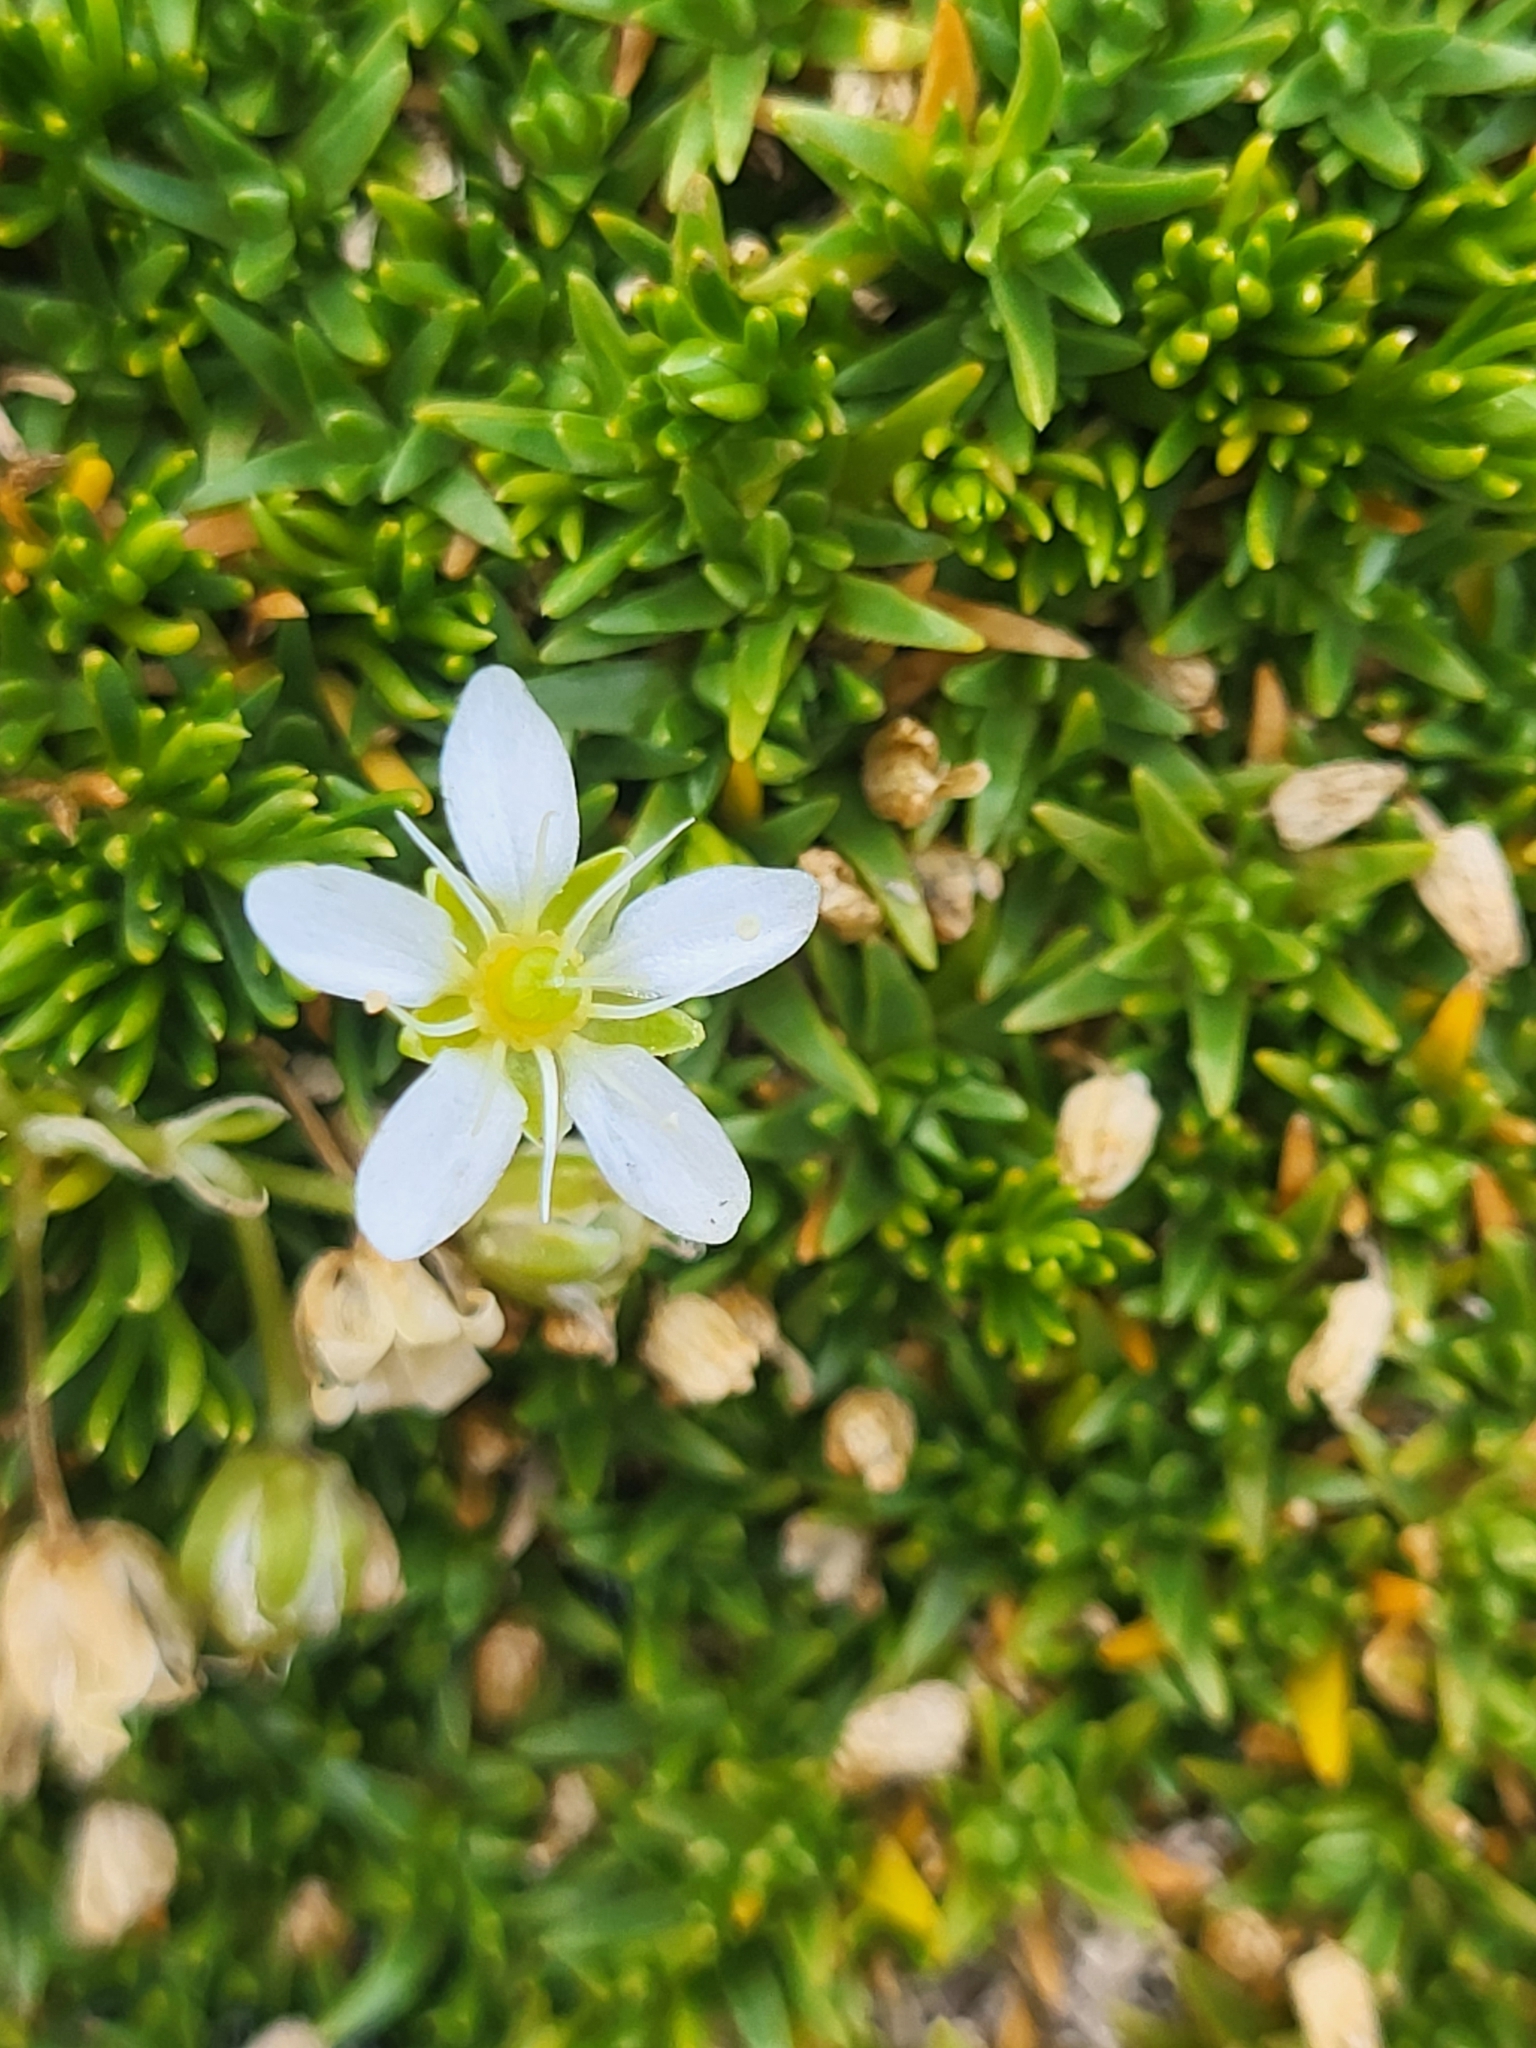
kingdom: Plantae
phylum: Tracheophyta
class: Magnoliopsida
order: Caryophyllales
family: Caryophyllaceae
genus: Moehringia
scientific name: Moehringia ciliata
